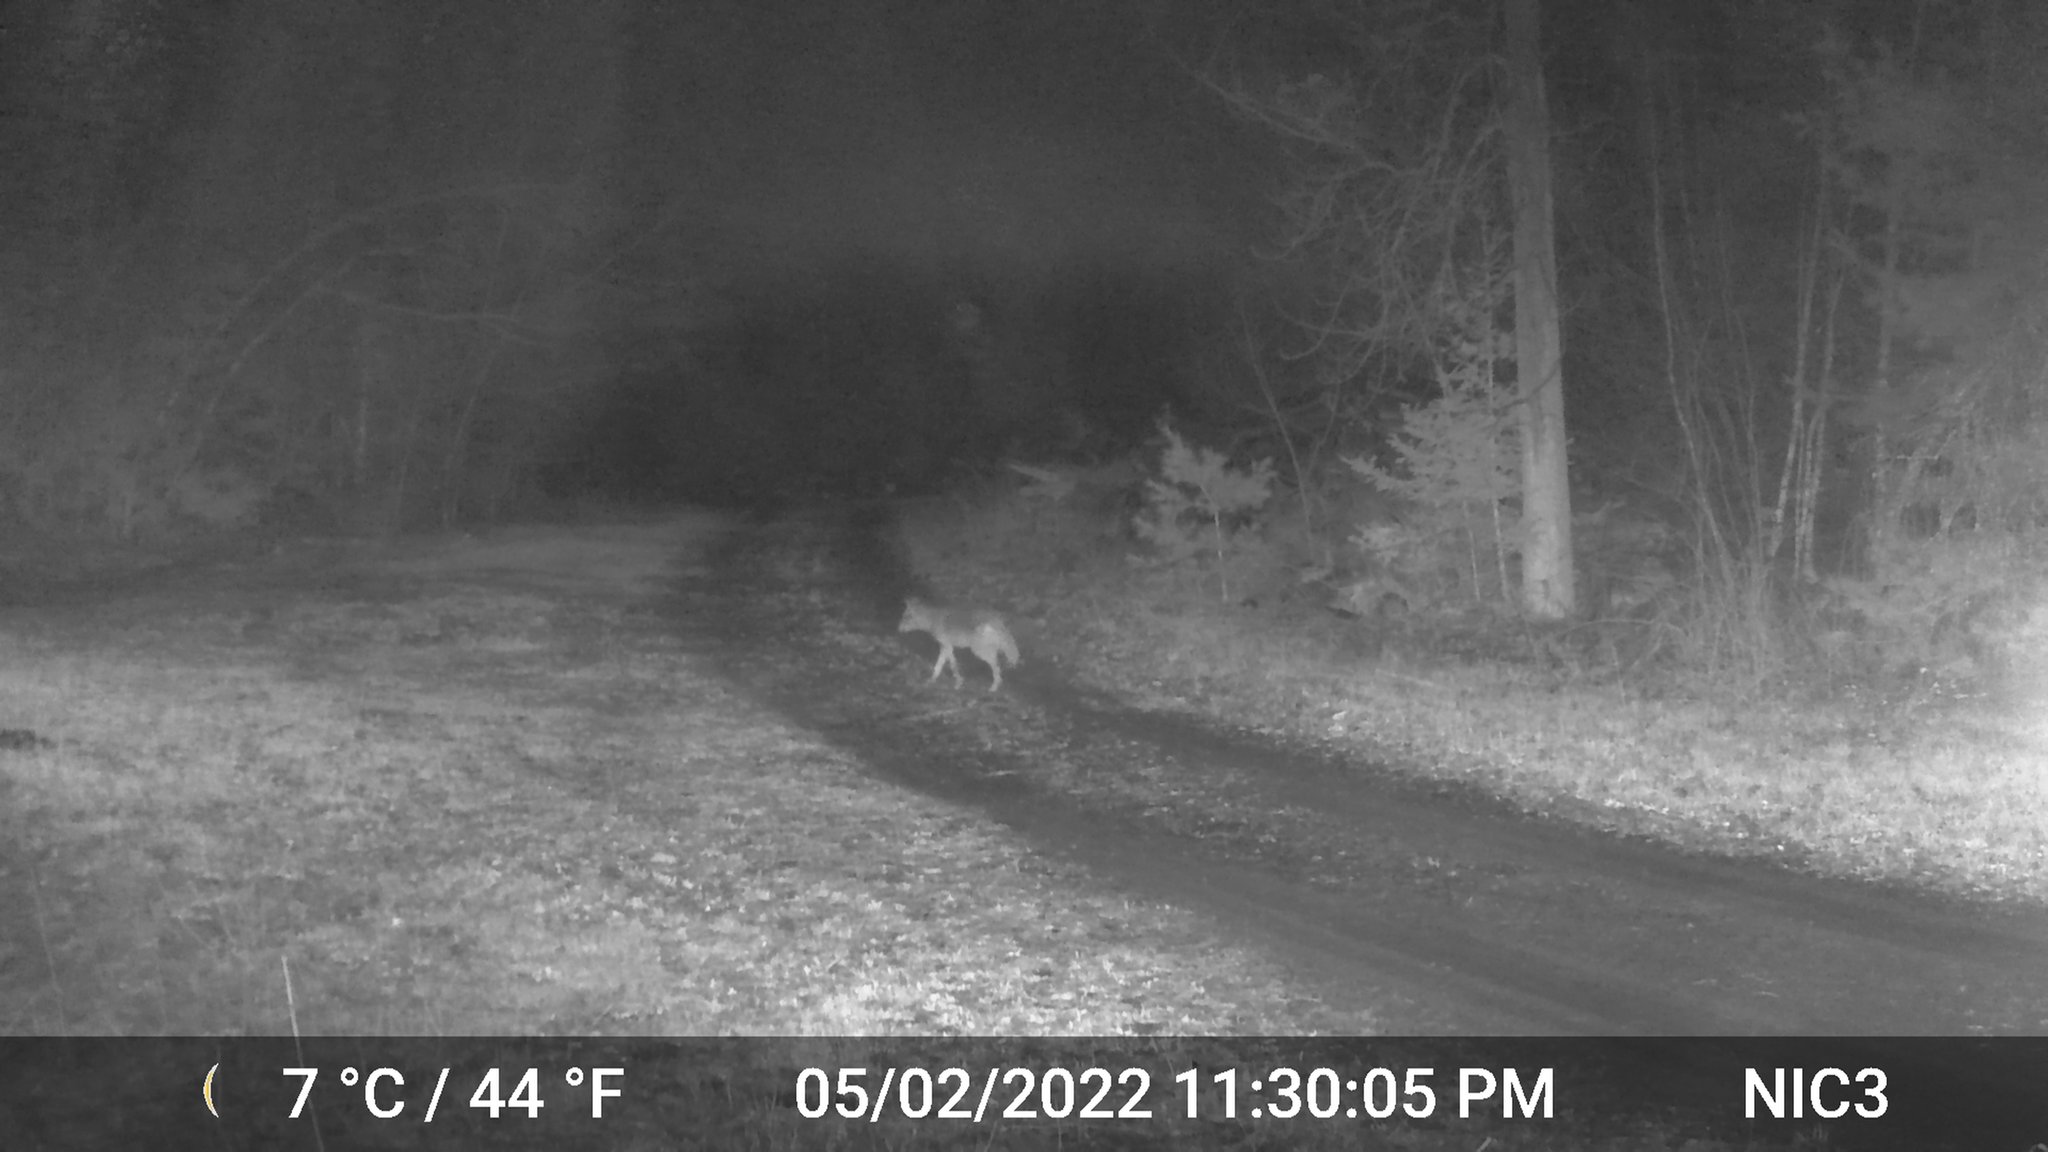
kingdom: Animalia
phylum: Chordata
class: Mammalia
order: Carnivora
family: Canidae
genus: Canis
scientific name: Canis latrans
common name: Coyote
